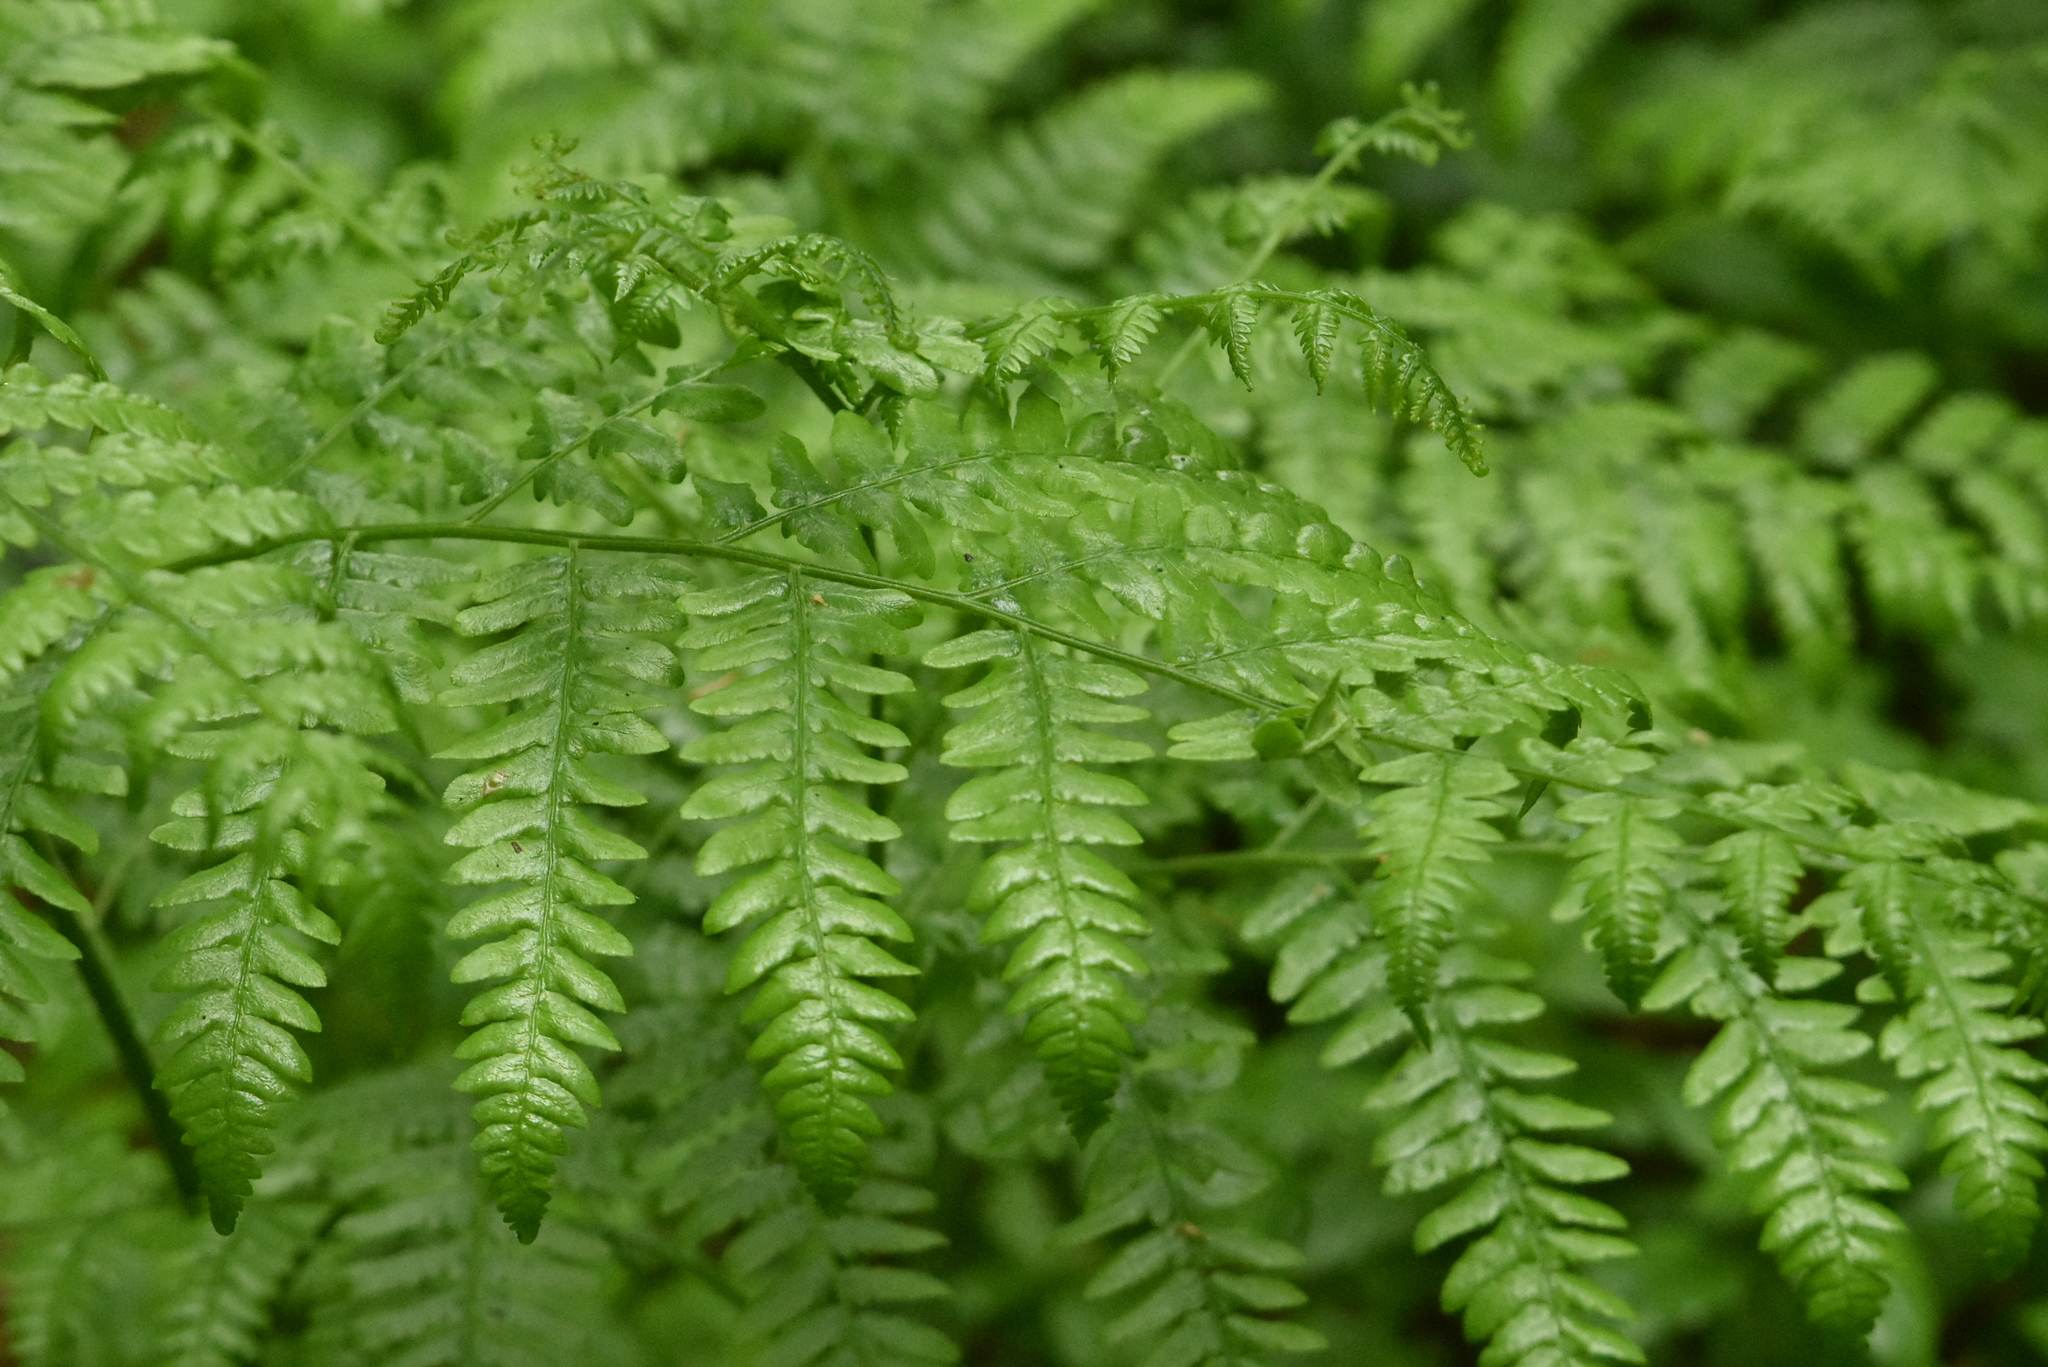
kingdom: Plantae
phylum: Tracheophyta
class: Polypodiopsida
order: Polypodiales
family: Dennstaedtiaceae
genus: Pteridium
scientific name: Pteridium aquilinum
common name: Bracken
